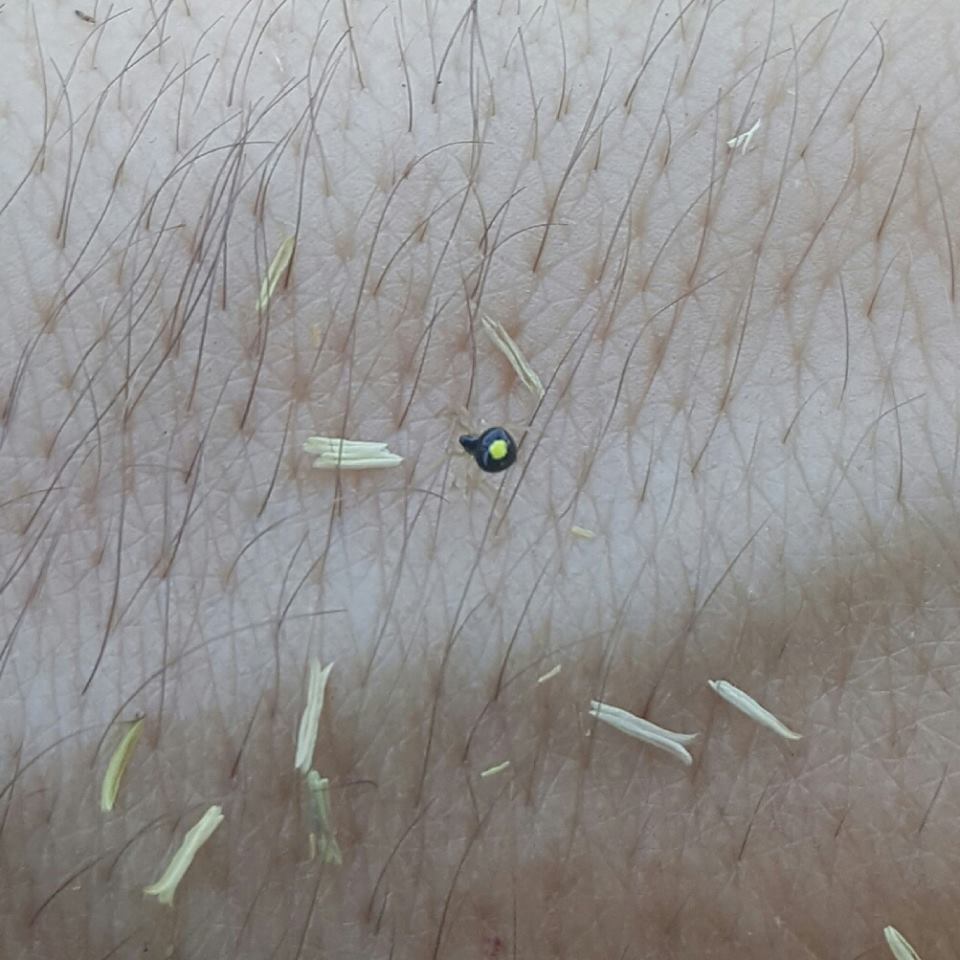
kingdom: Animalia
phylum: Arthropoda
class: Arachnida
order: Araneae
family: Theridiidae
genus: Theridula
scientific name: Theridula opulenta
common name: Cobweb spiders
